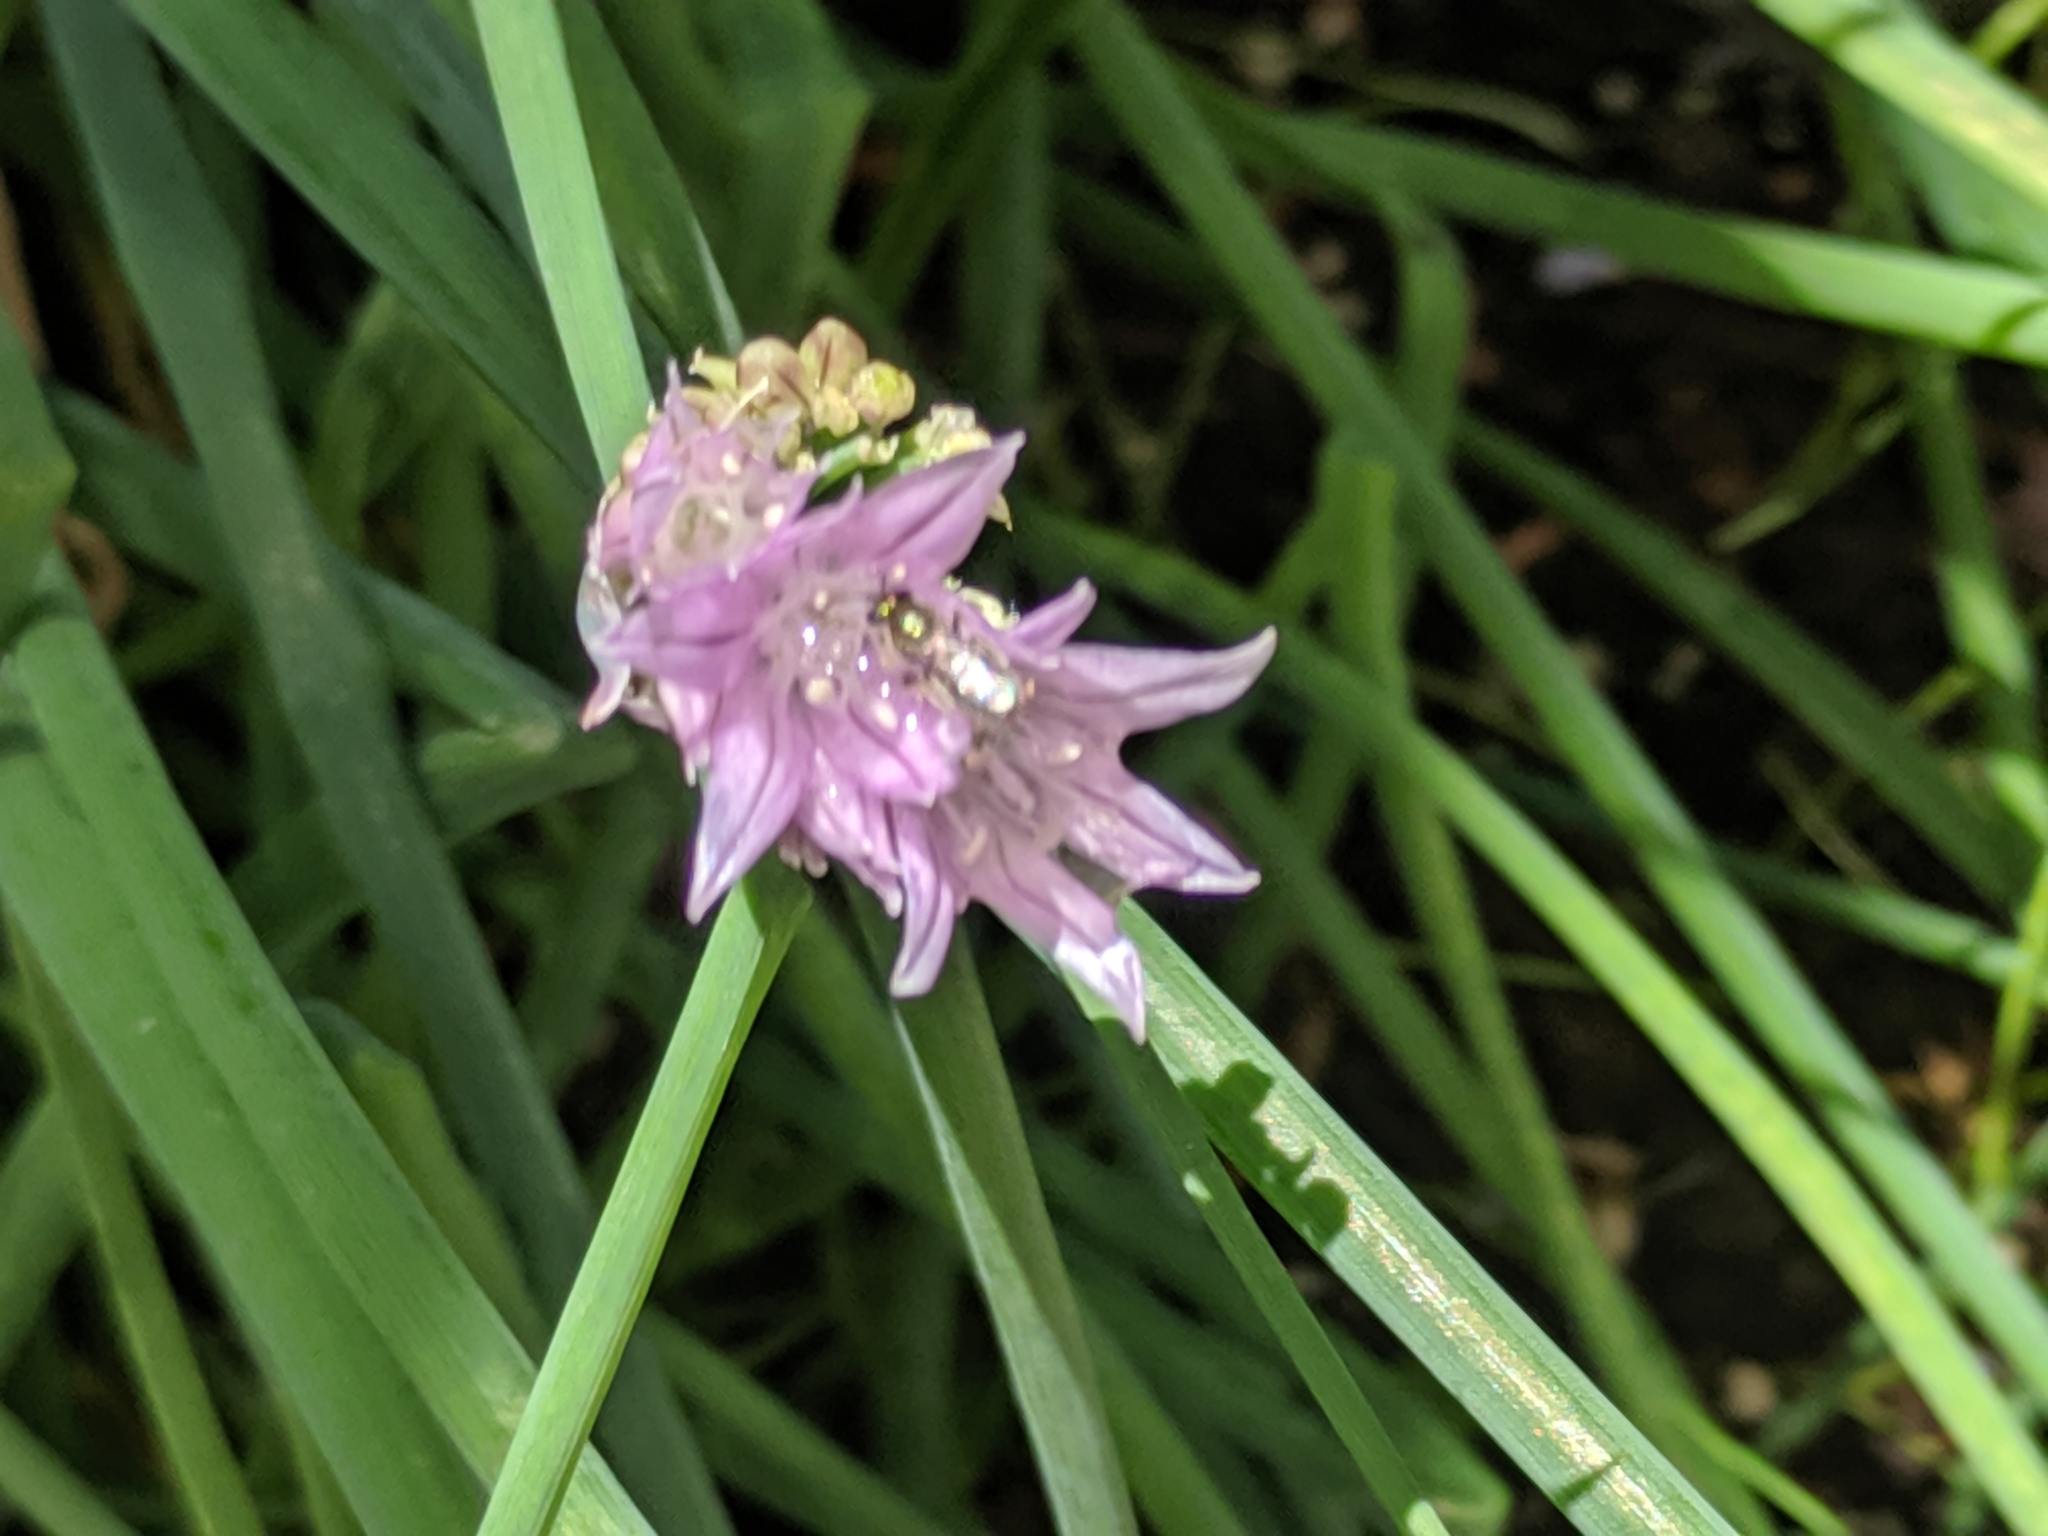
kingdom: Animalia
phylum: Arthropoda
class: Insecta
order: Hymenoptera
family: Halictidae
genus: Dialictus
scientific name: Dialictus
